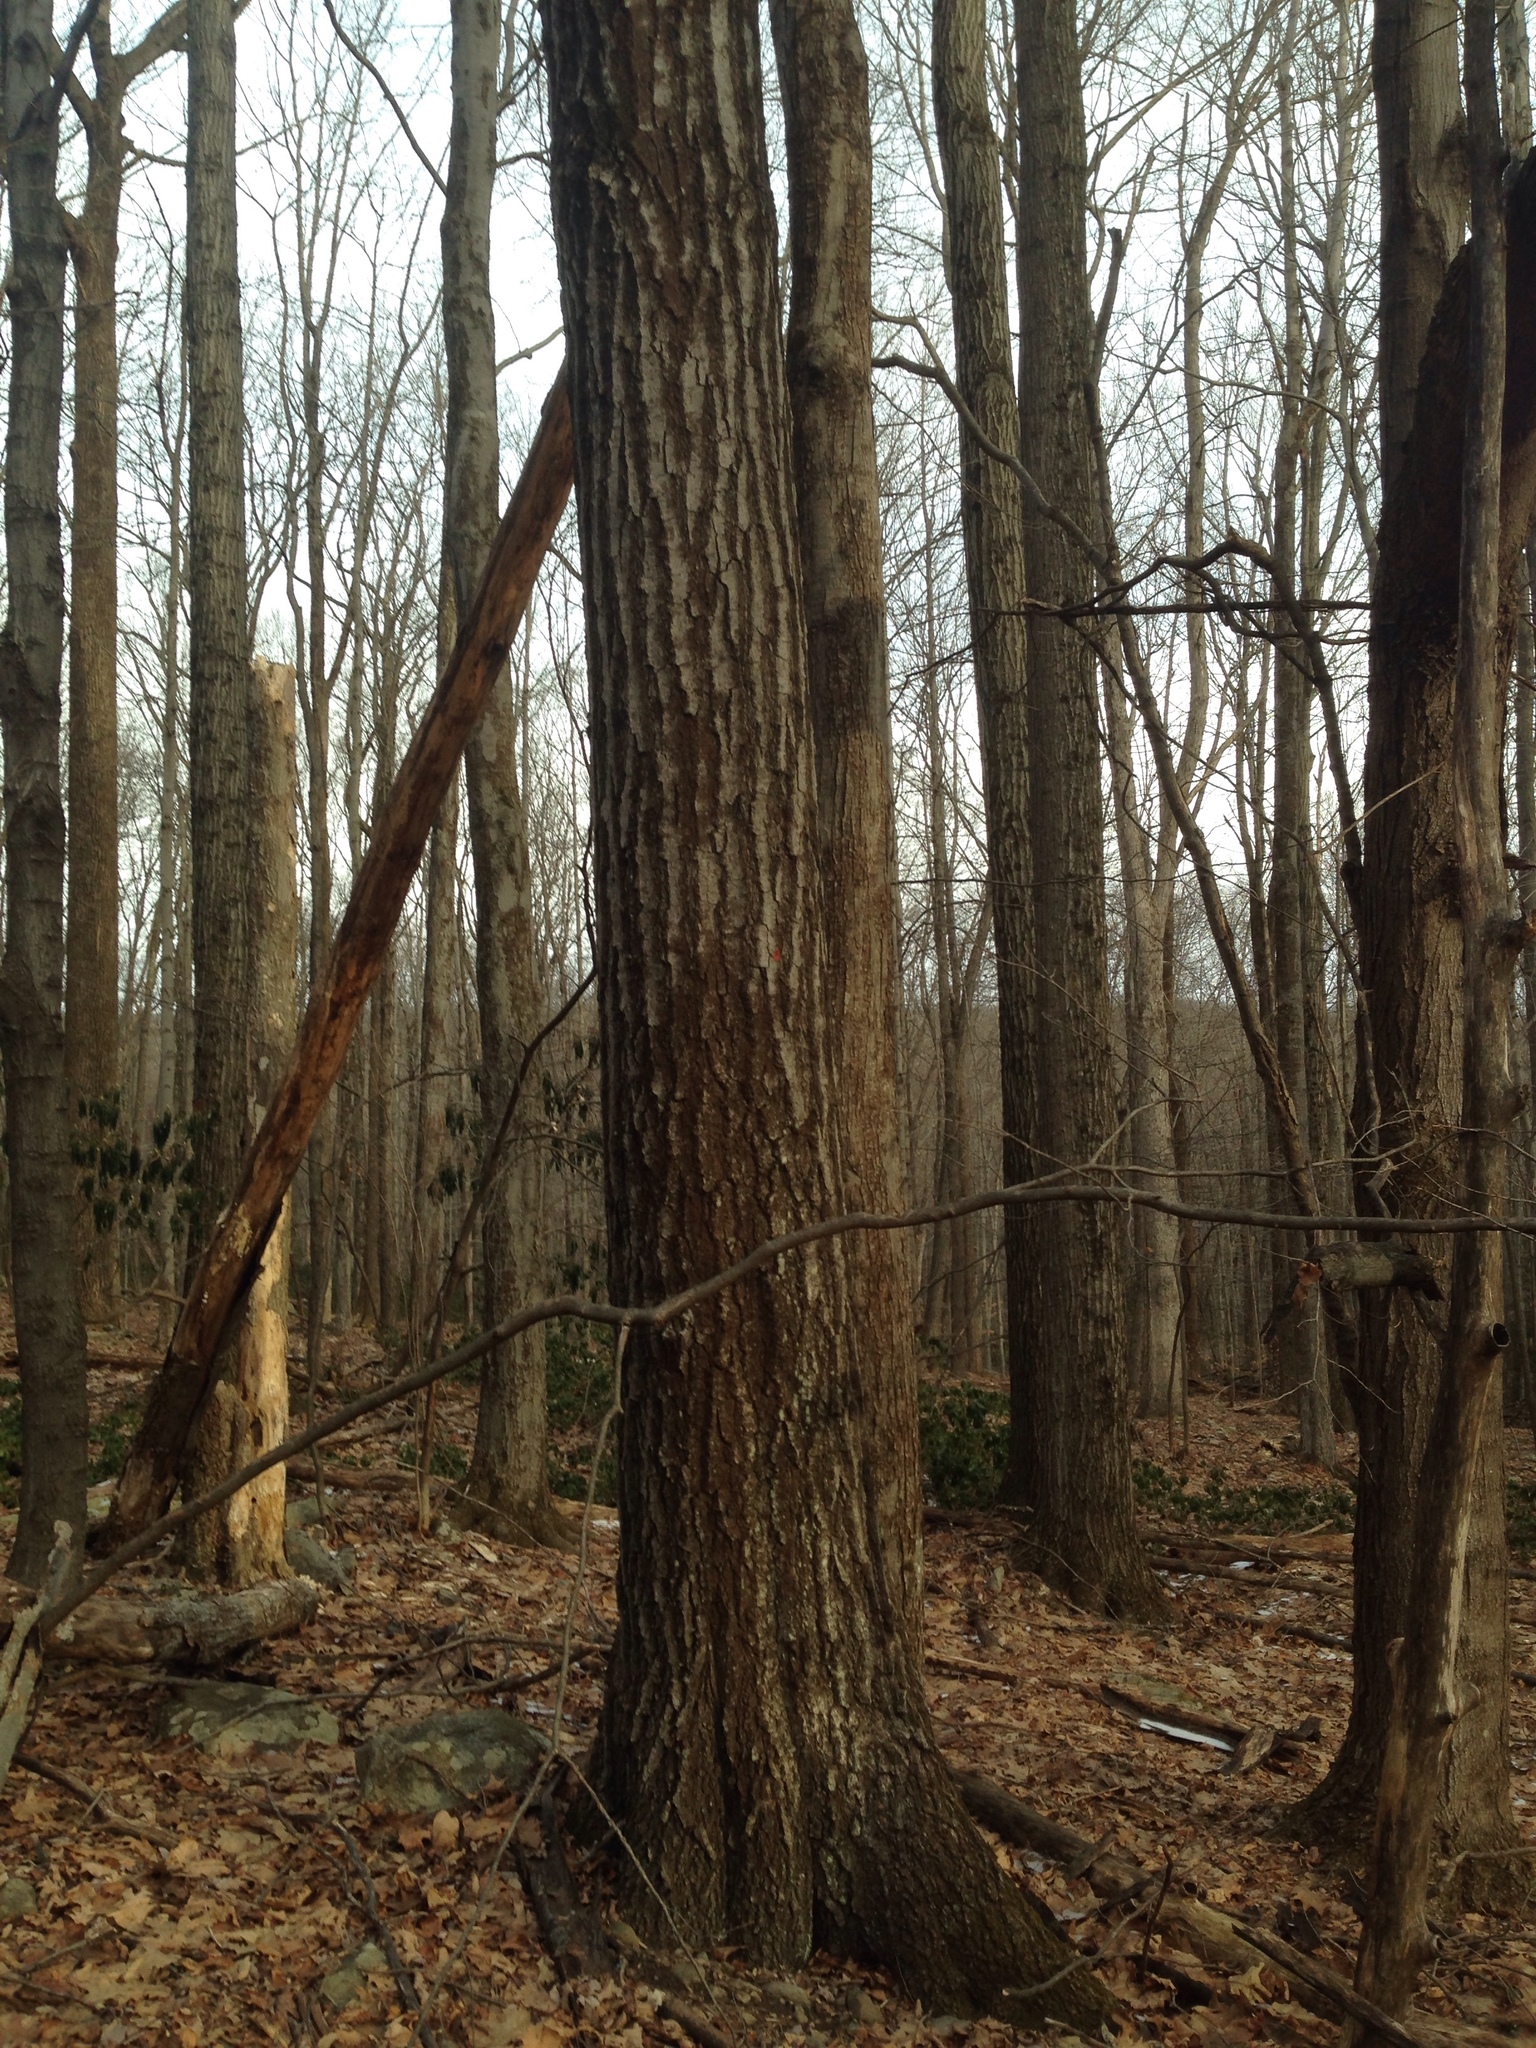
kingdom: Plantae
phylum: Tracheophyta
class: Magnoliopsida
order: Fagales
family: Fagaceae
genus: Quercus
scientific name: Quercus rubra
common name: Red oak
